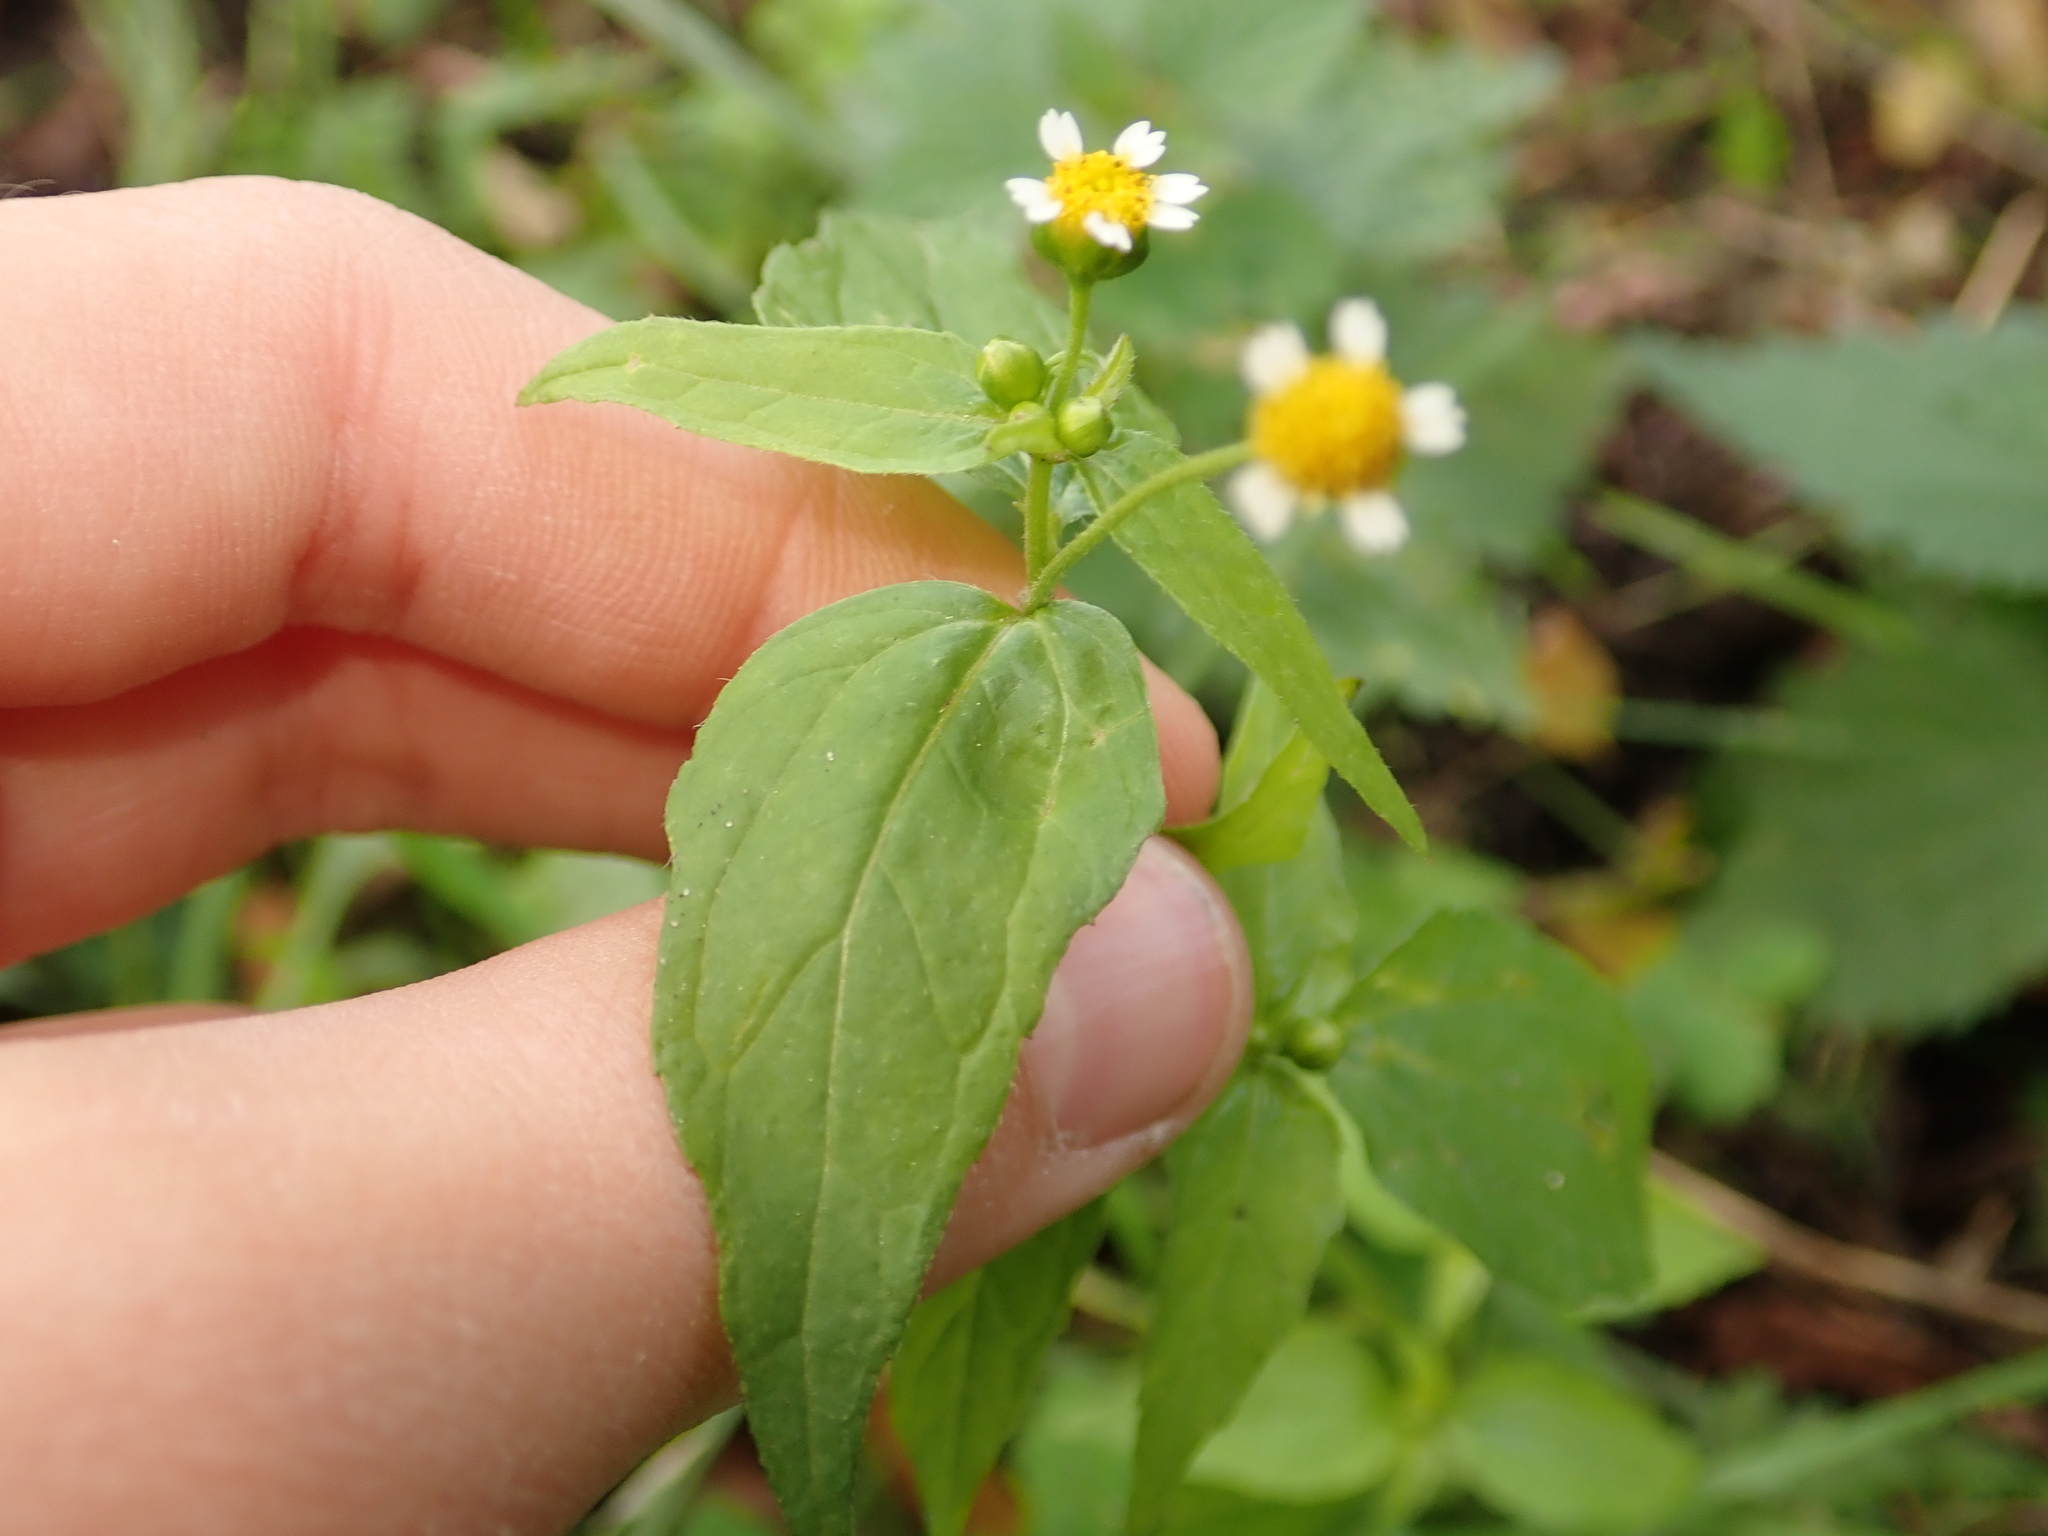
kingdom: Plantae
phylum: Tracheophyta
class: Magnoliopsida
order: Asterales
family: Asteraceae
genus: Galinsoga
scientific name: Galinsoga parviflora
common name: Gallant soldier
